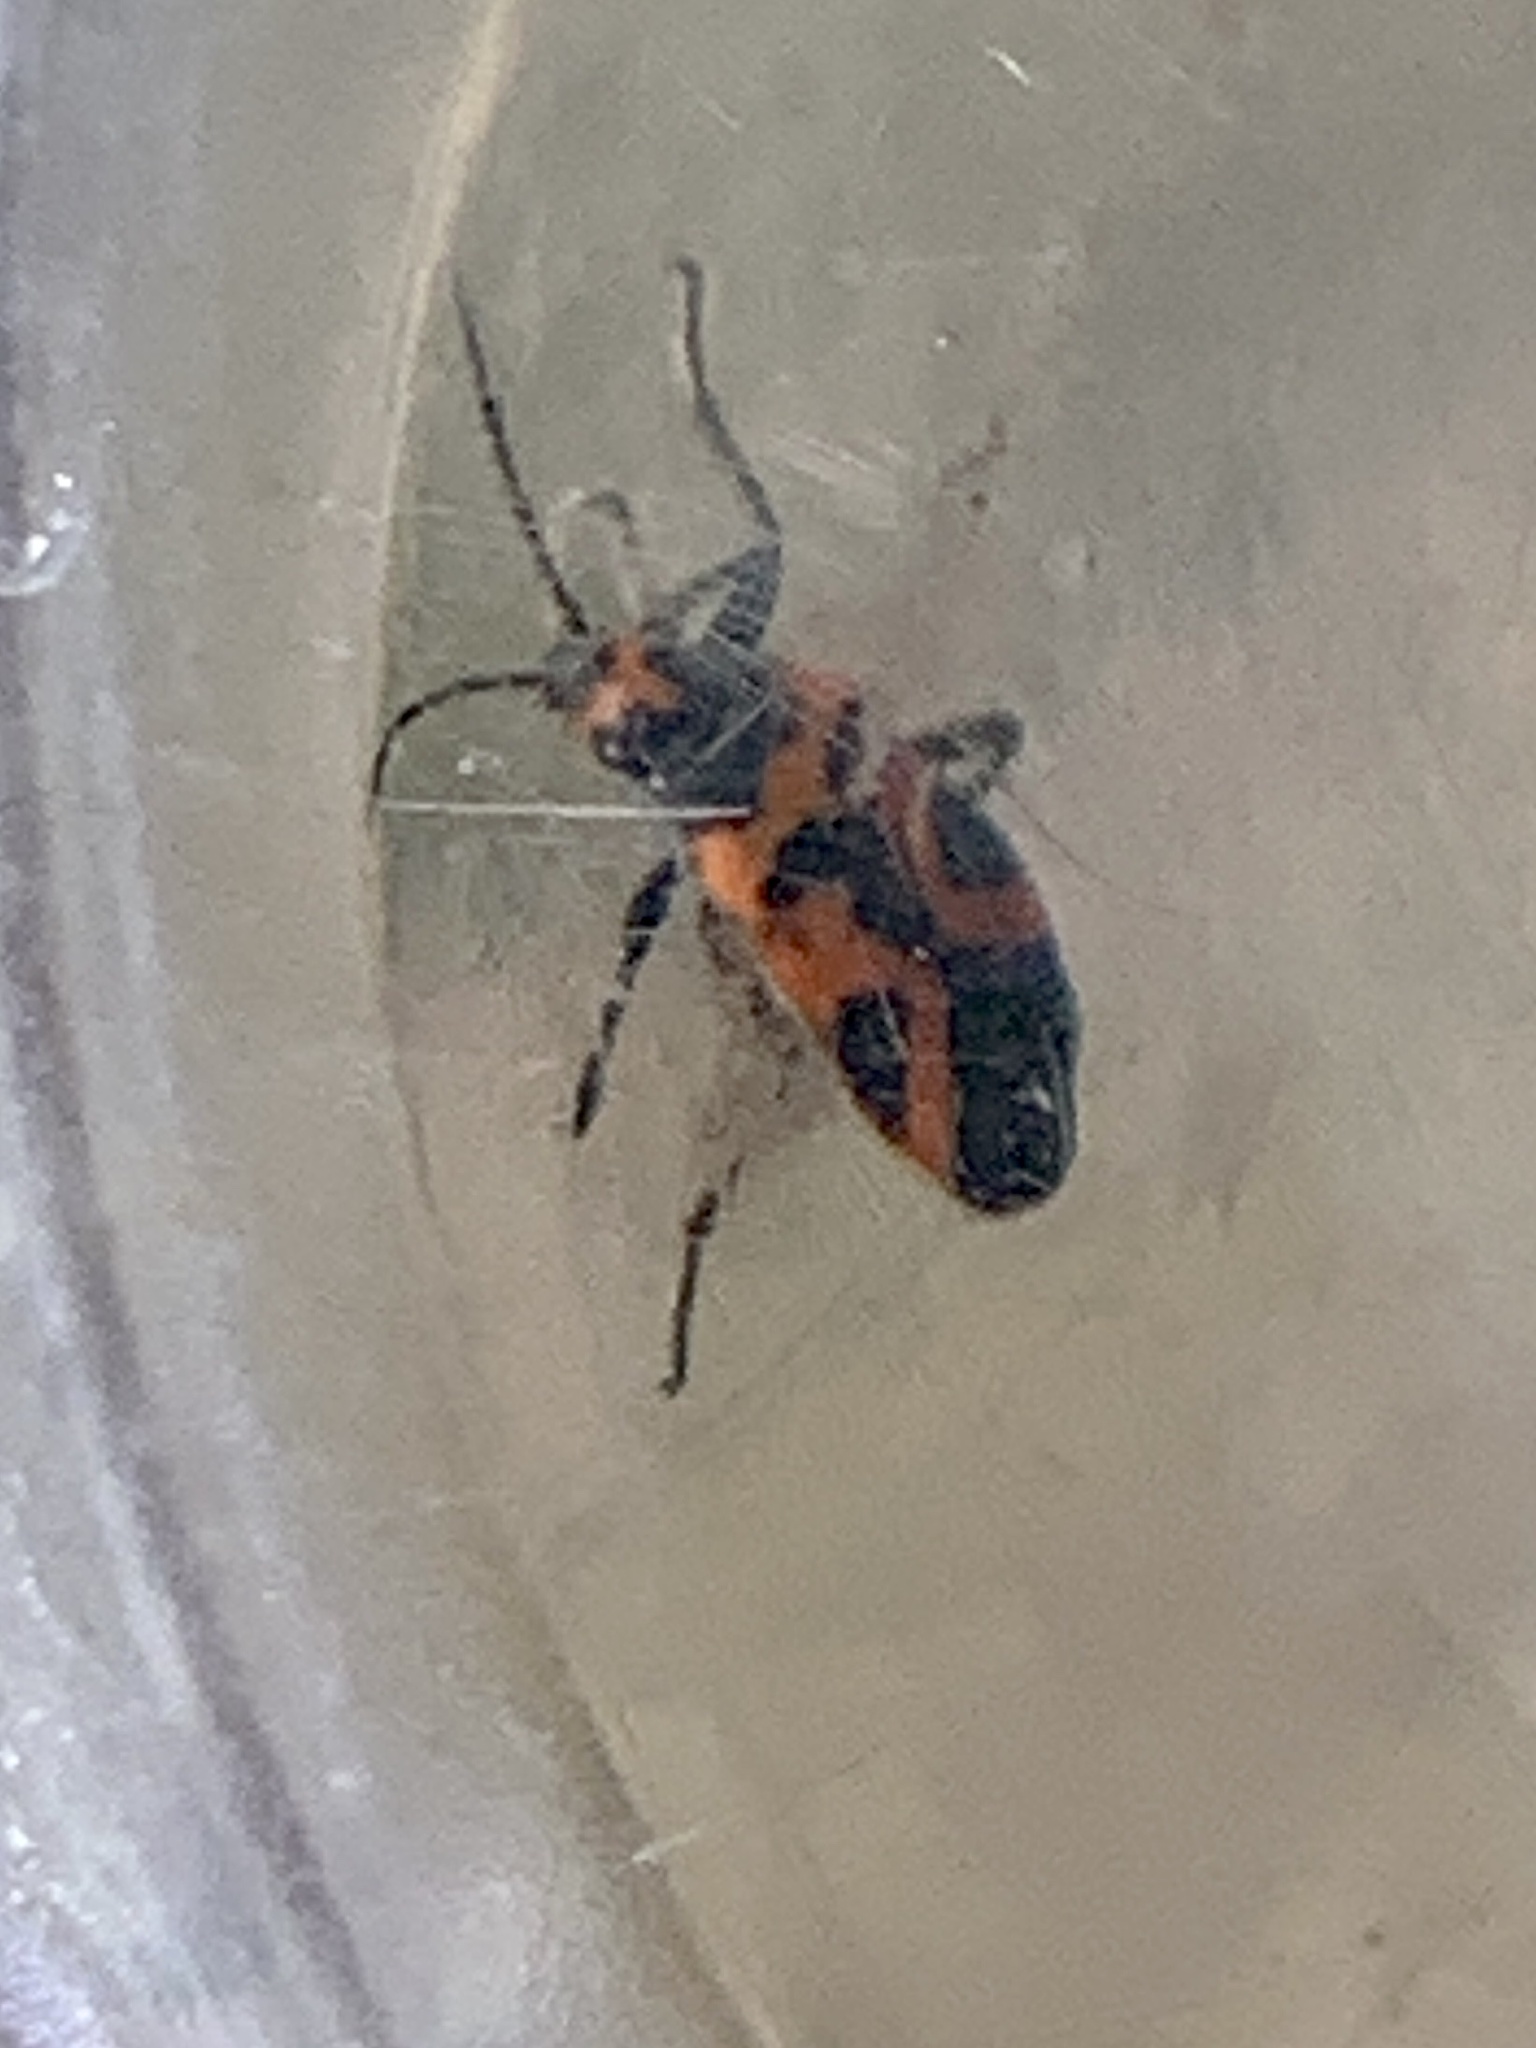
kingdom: Animalia
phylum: Arthropoda
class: Insecta
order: Hemiptera
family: Lygaeidae
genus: Lygaeus
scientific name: Lygaeus turcicus
